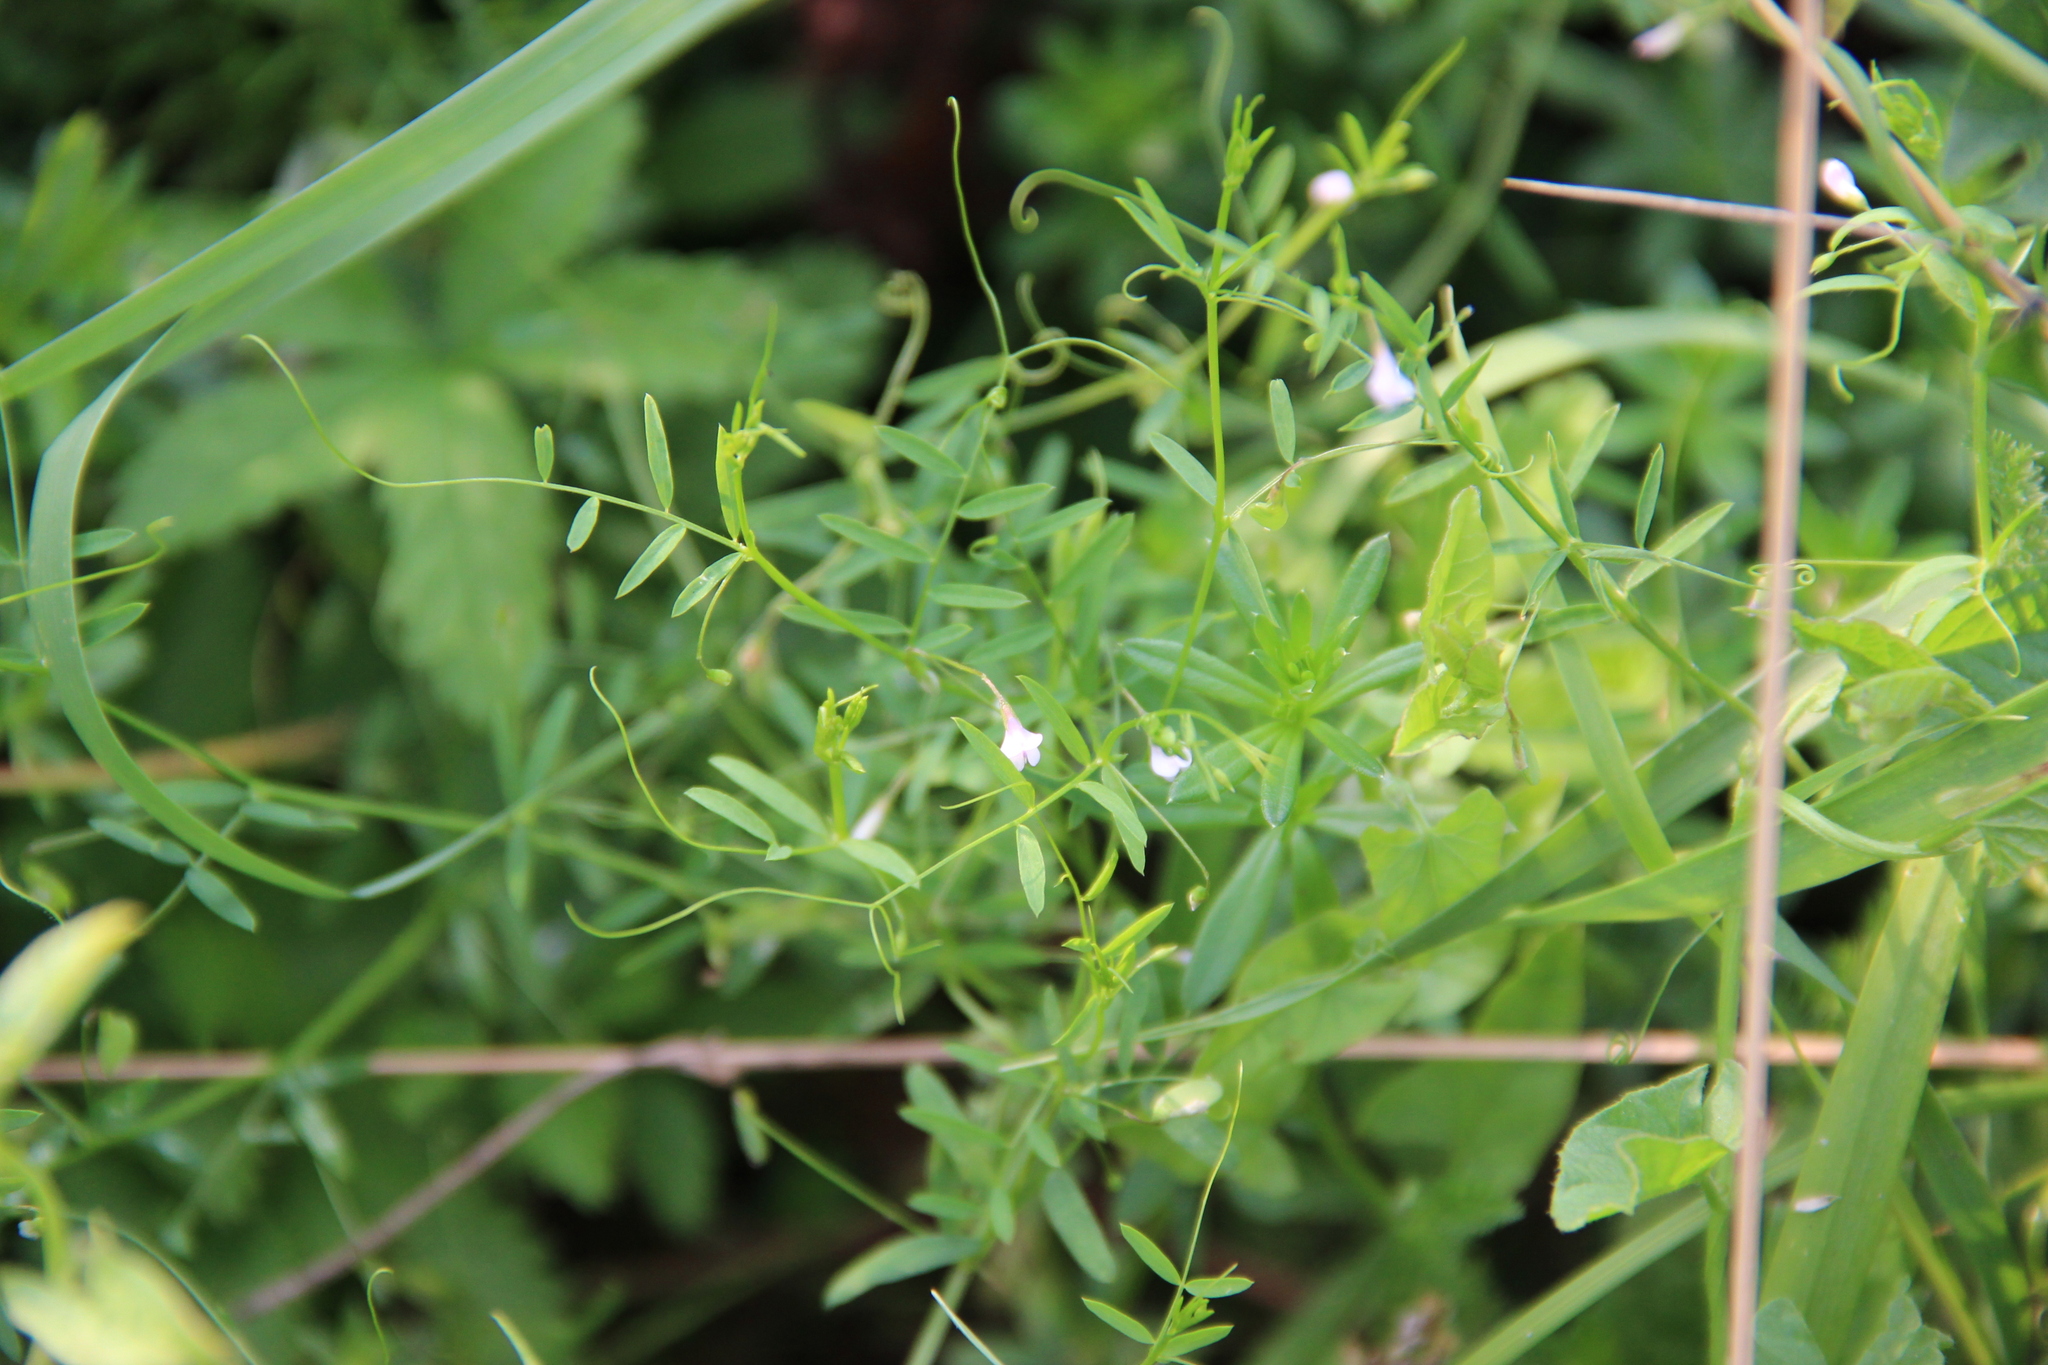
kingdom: Plantae
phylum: Tracheophyta
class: Magnoliopsida
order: Fabales
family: Fabaceae
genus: Vicia
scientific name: Vicia tetrasperma
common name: Smooth tare
